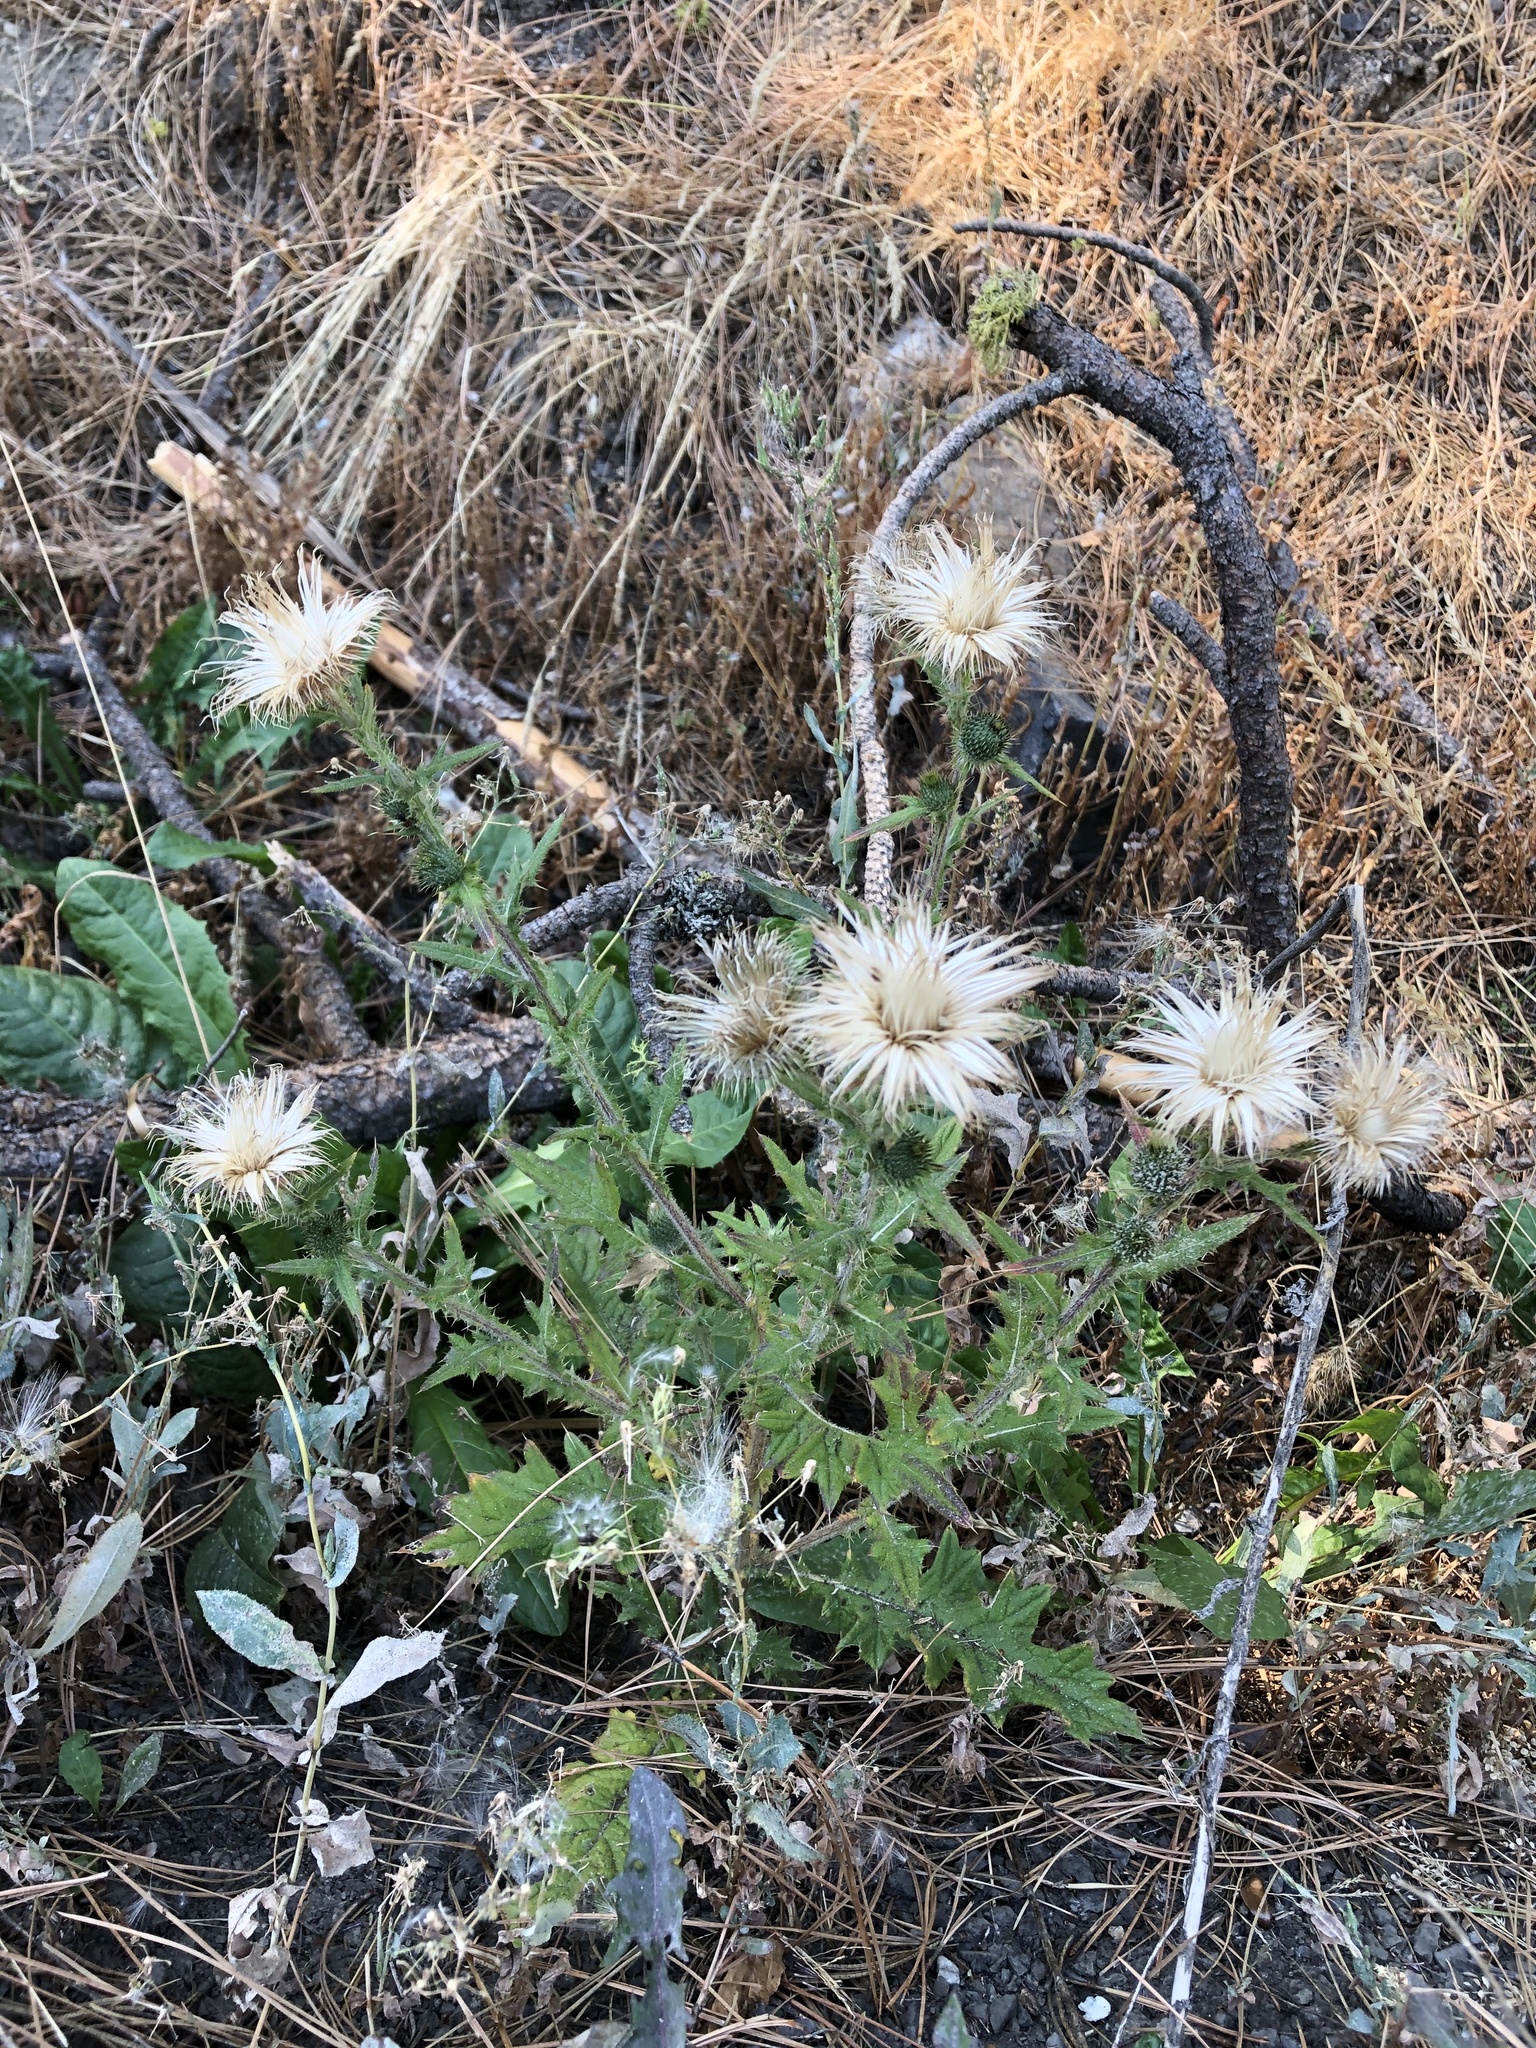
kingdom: Plantae
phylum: Tracheophyta
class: Magnoliopsida
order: Asterales
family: Asteraceae
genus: Cirsium
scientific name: Cirsium vulgare
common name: Bull thistle
